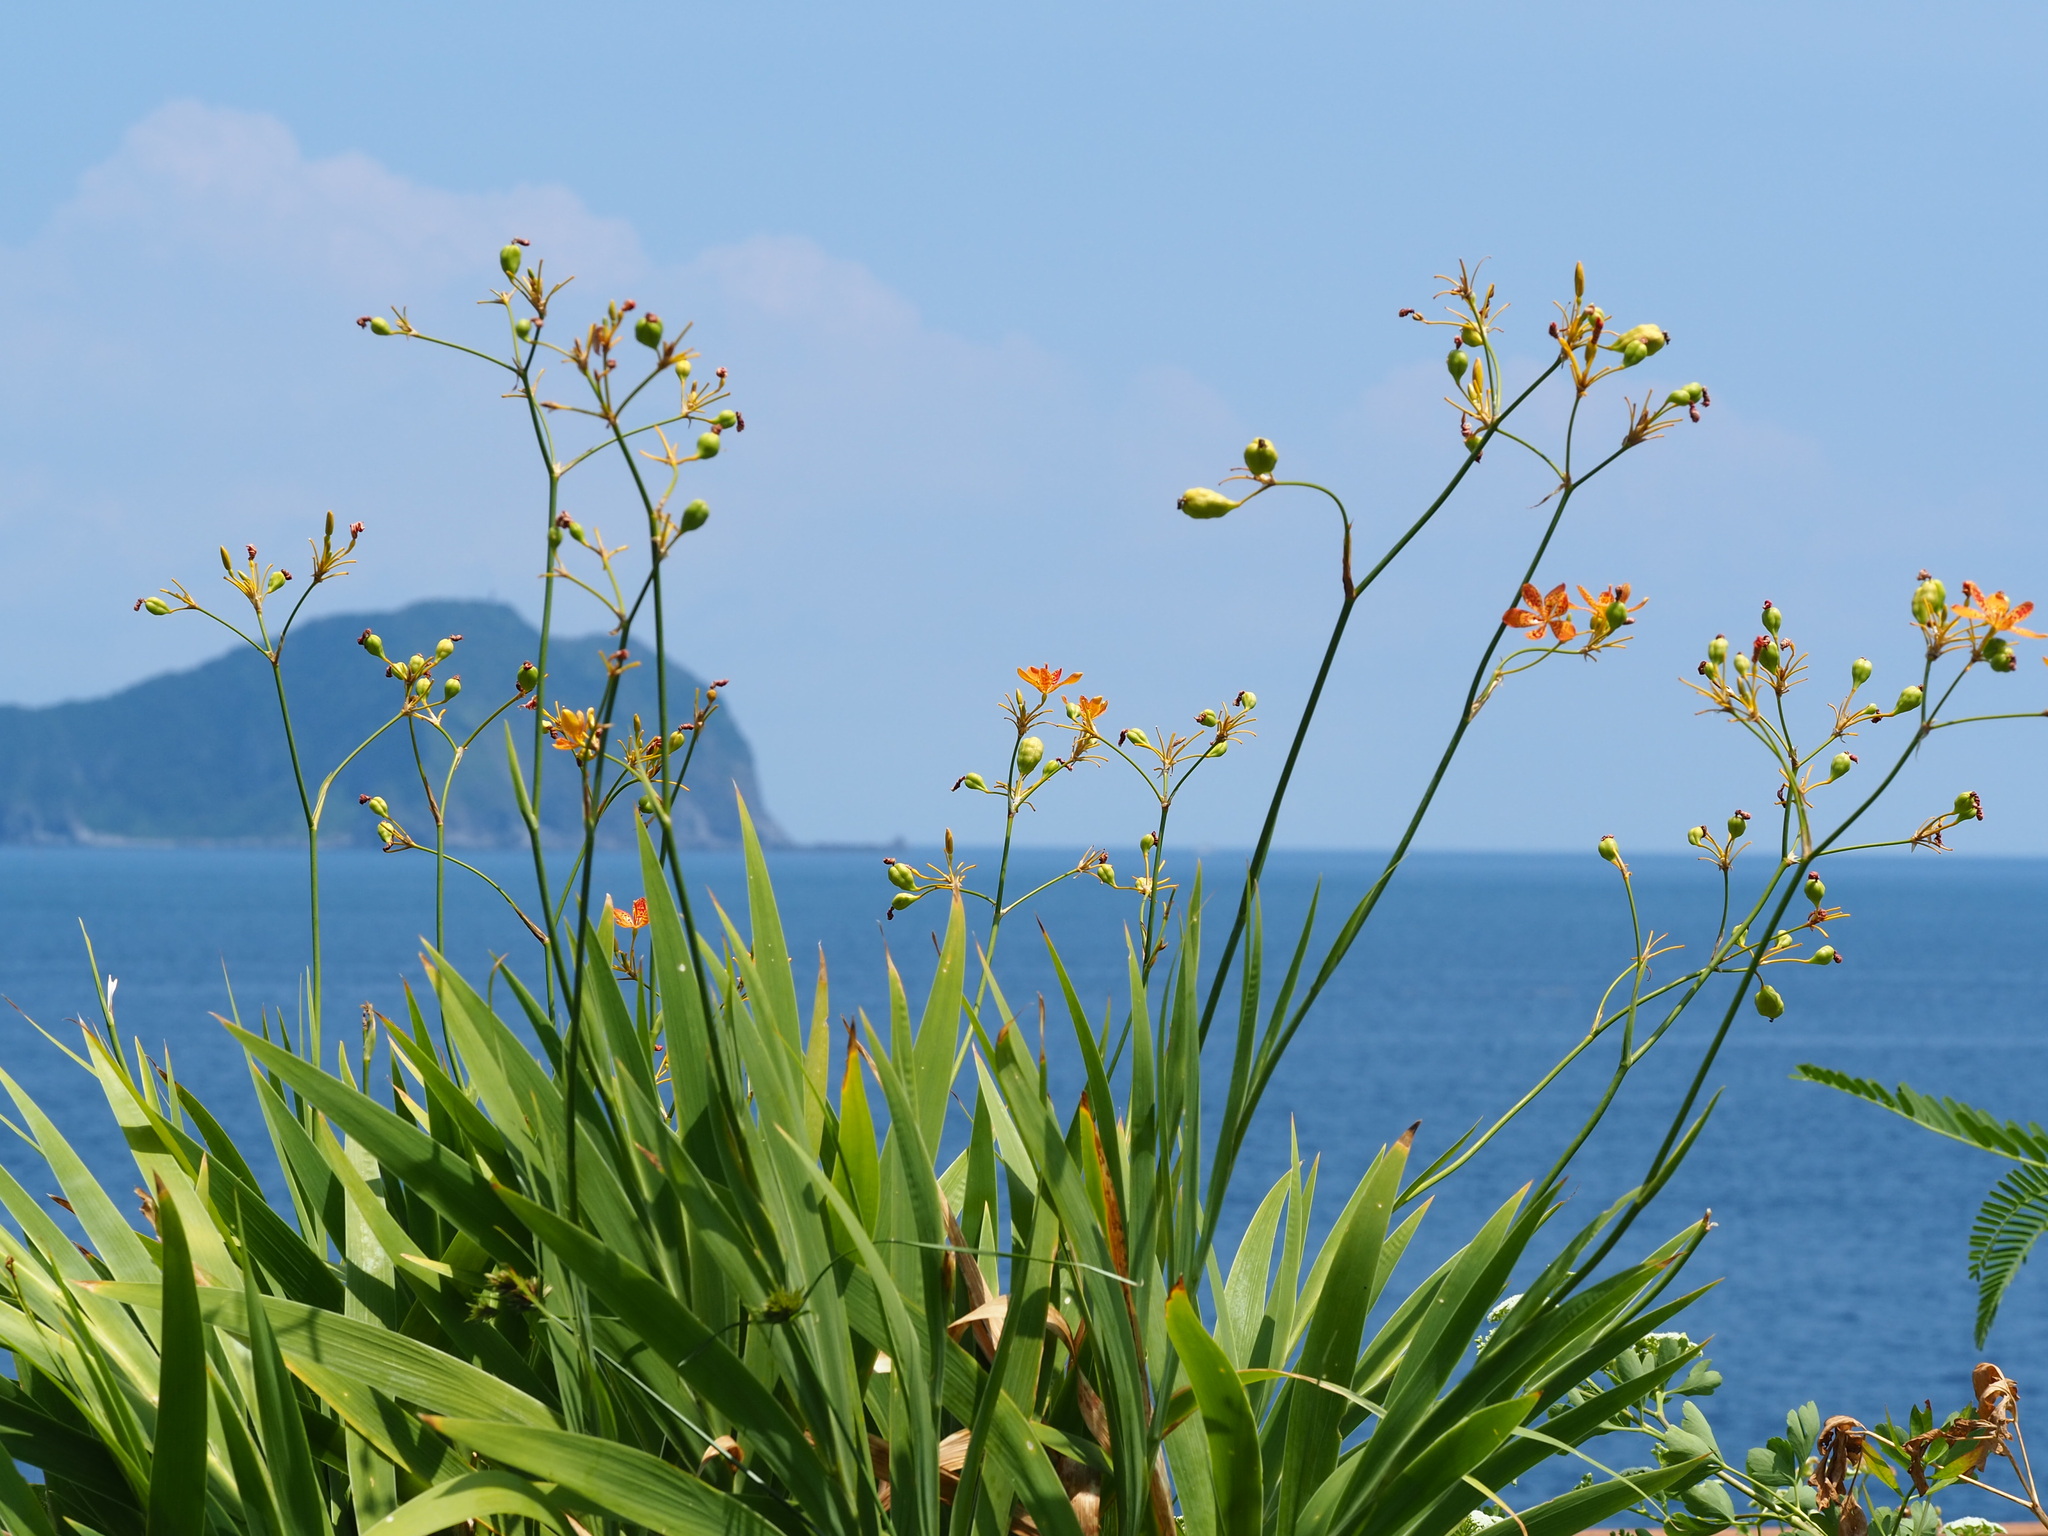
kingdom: Plantae
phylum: Tracheophyta
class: Liliopsida
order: Asparagales
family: Iridaceae
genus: Iris
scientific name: Iris domestica
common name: Belamcanda
